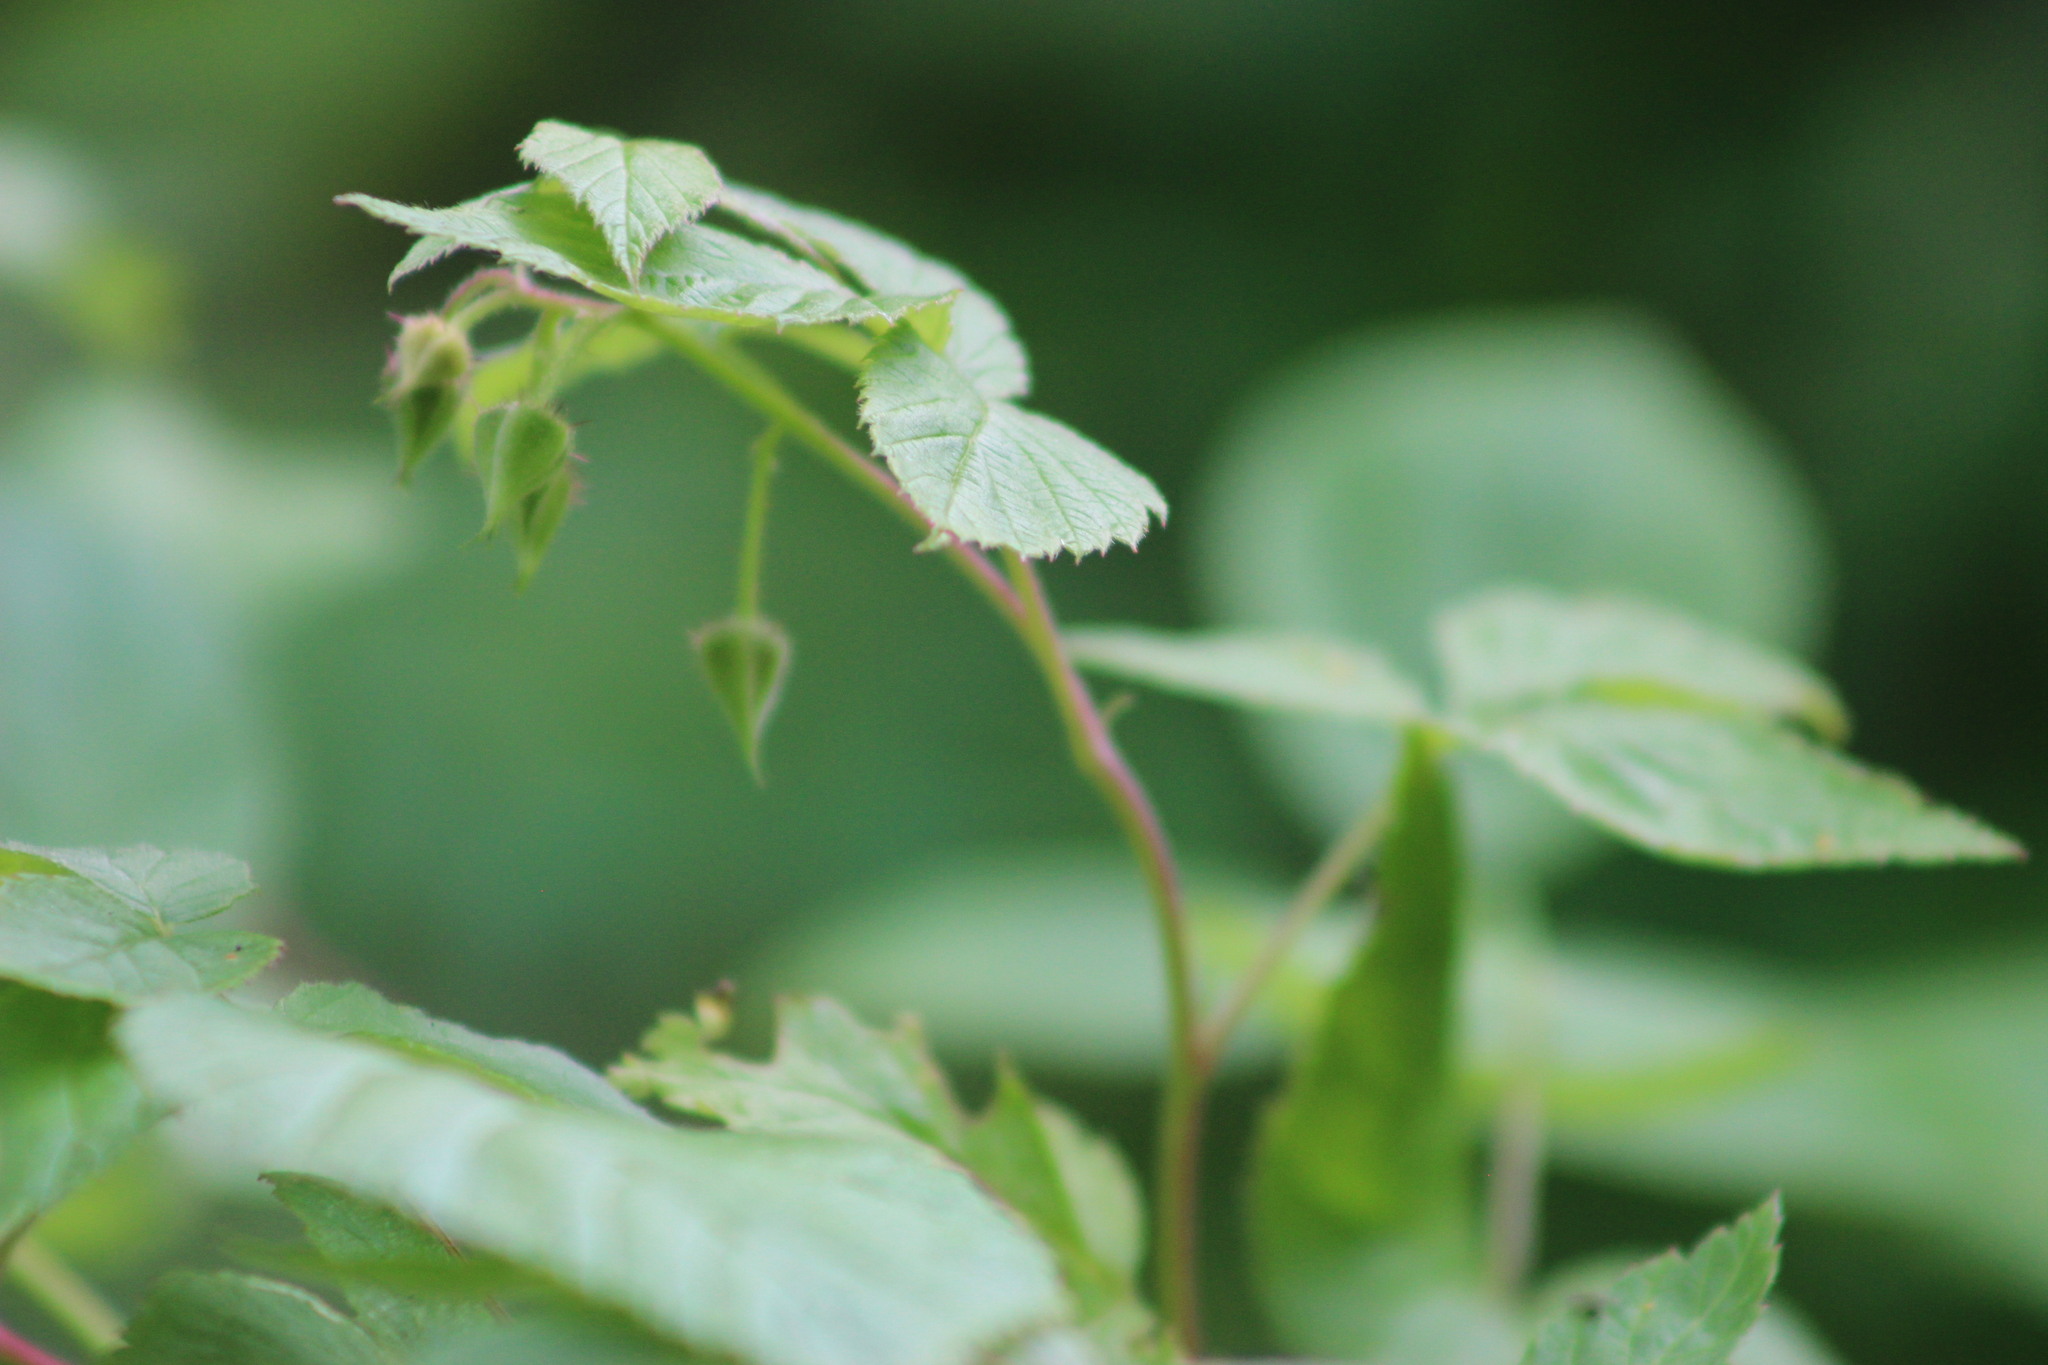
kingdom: Plantae
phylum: Tracheophyta
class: Magnoliopsida
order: Rosales
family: Rosaceae
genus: Rubus
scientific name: Rubus idaeus
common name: Raspberry
